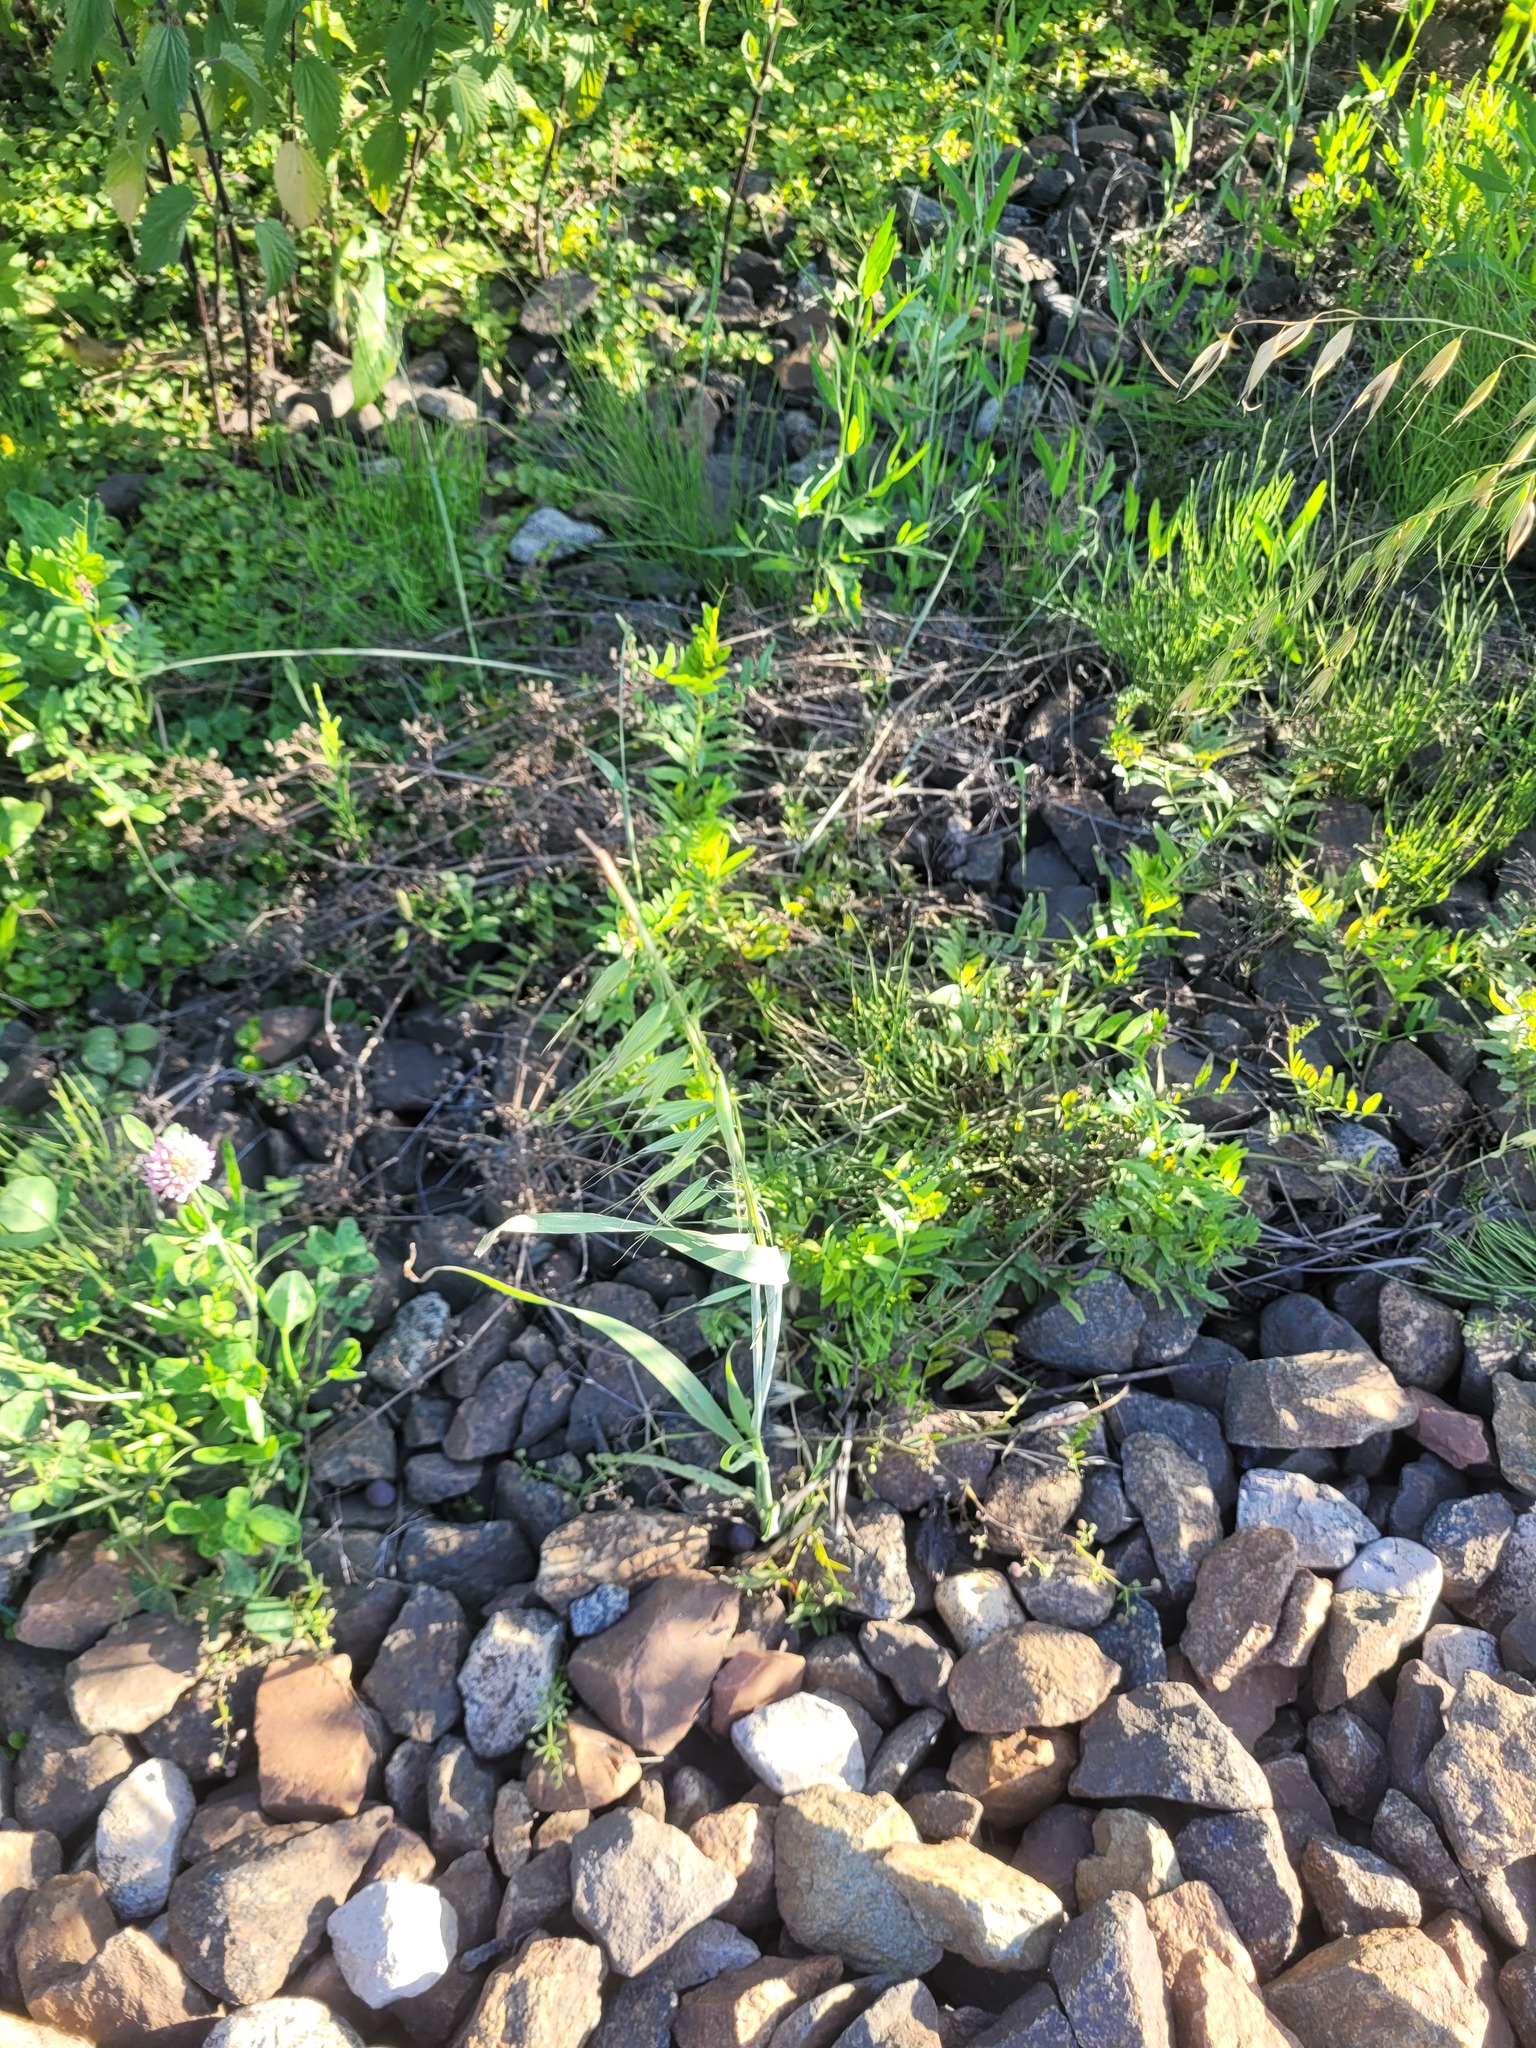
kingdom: Plantae
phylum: Tracheophyta
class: Liliopsida
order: Poales
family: Poaceae
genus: Avena
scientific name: Avena fatua
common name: Wild oat
